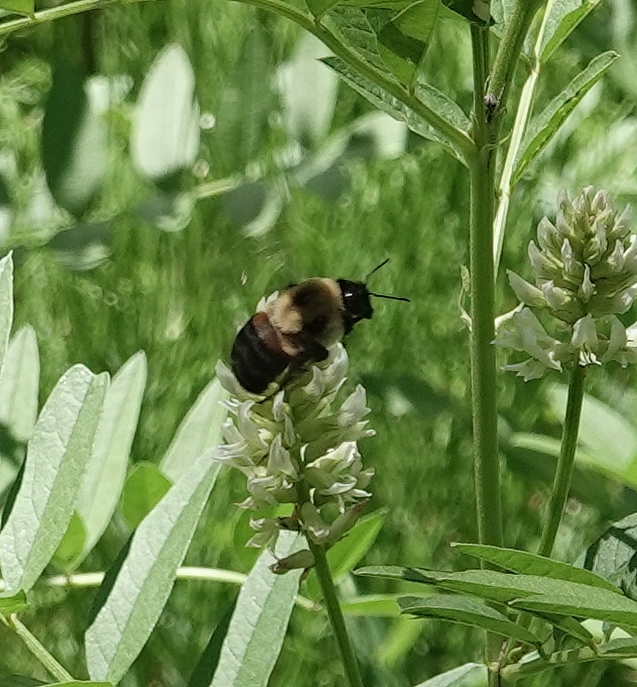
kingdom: Animalia
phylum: Arthropoda
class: Insecta
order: Hymenoptera
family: Apidae
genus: Bombus
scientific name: Bombus griseocollis
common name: Brown-belted bumble bee
